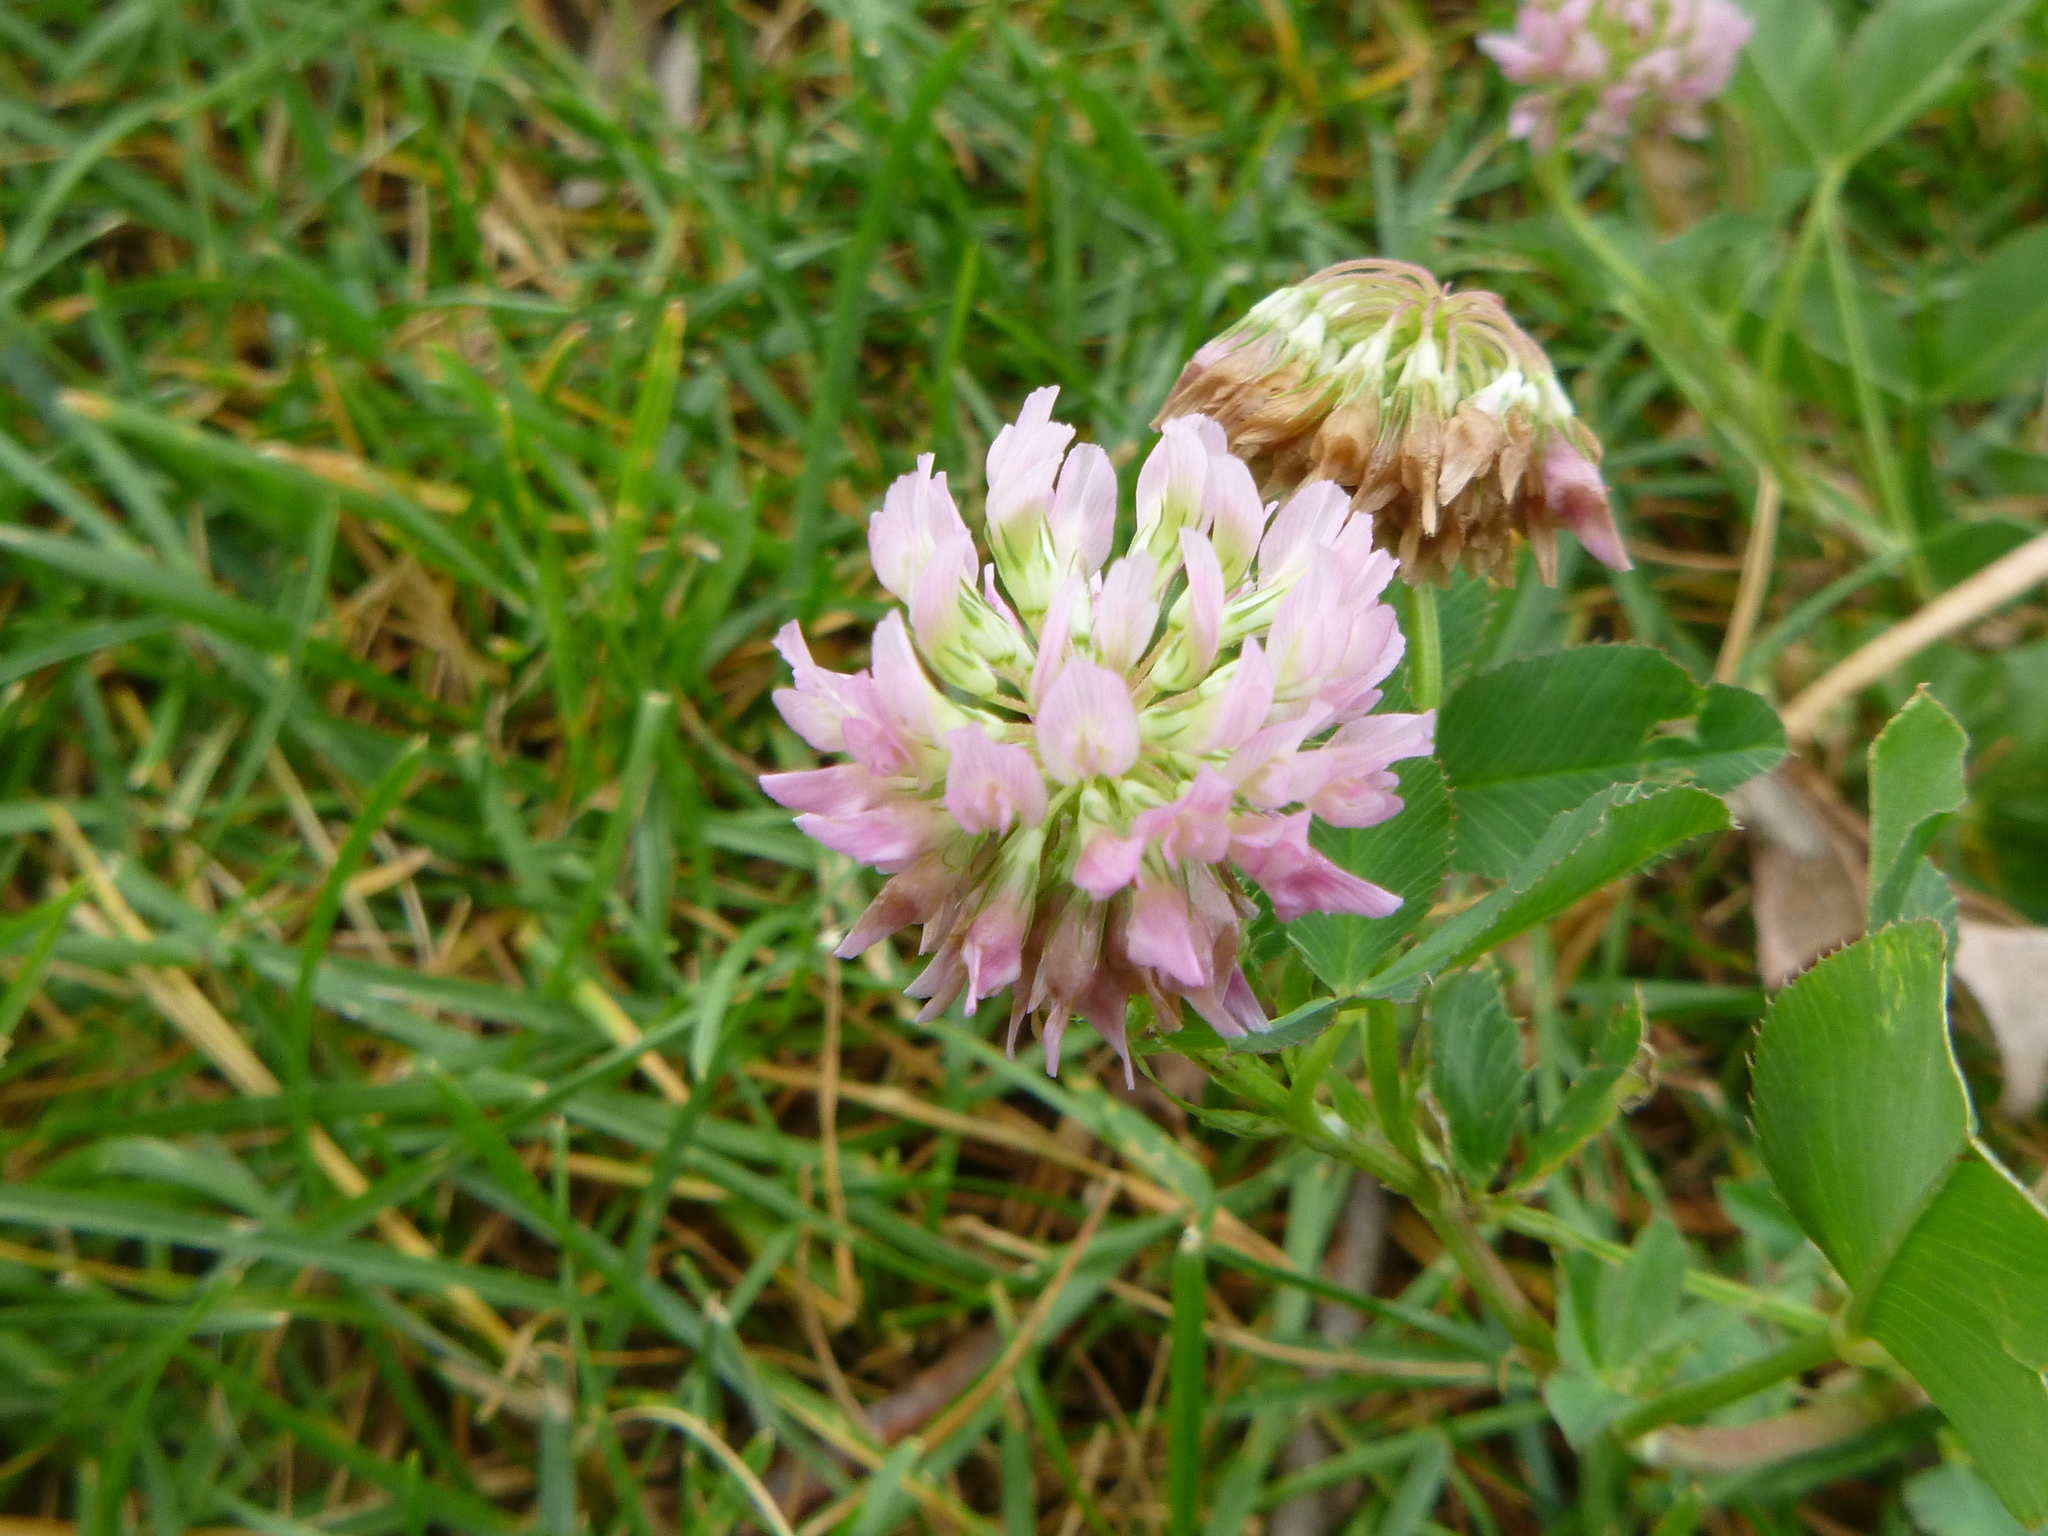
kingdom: Plantae
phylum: Tracheophyta
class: Magnoliopsida
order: Fabales
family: Fabaceae
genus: Trifolium
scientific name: Trifolium hybridum
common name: Alsike clover
